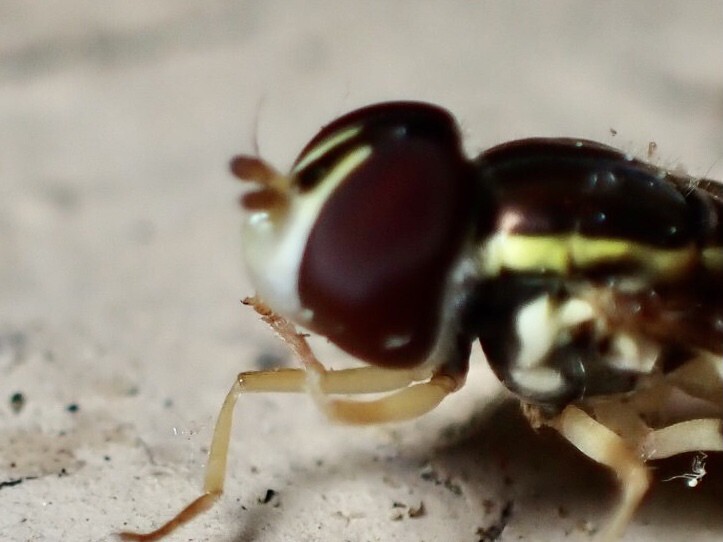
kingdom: Animalia
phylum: Arthropoda
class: Insecta
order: Diptera
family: Syrphidae
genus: Toxomerus
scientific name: Toxomerus geminatus
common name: Eastern calligrapher
